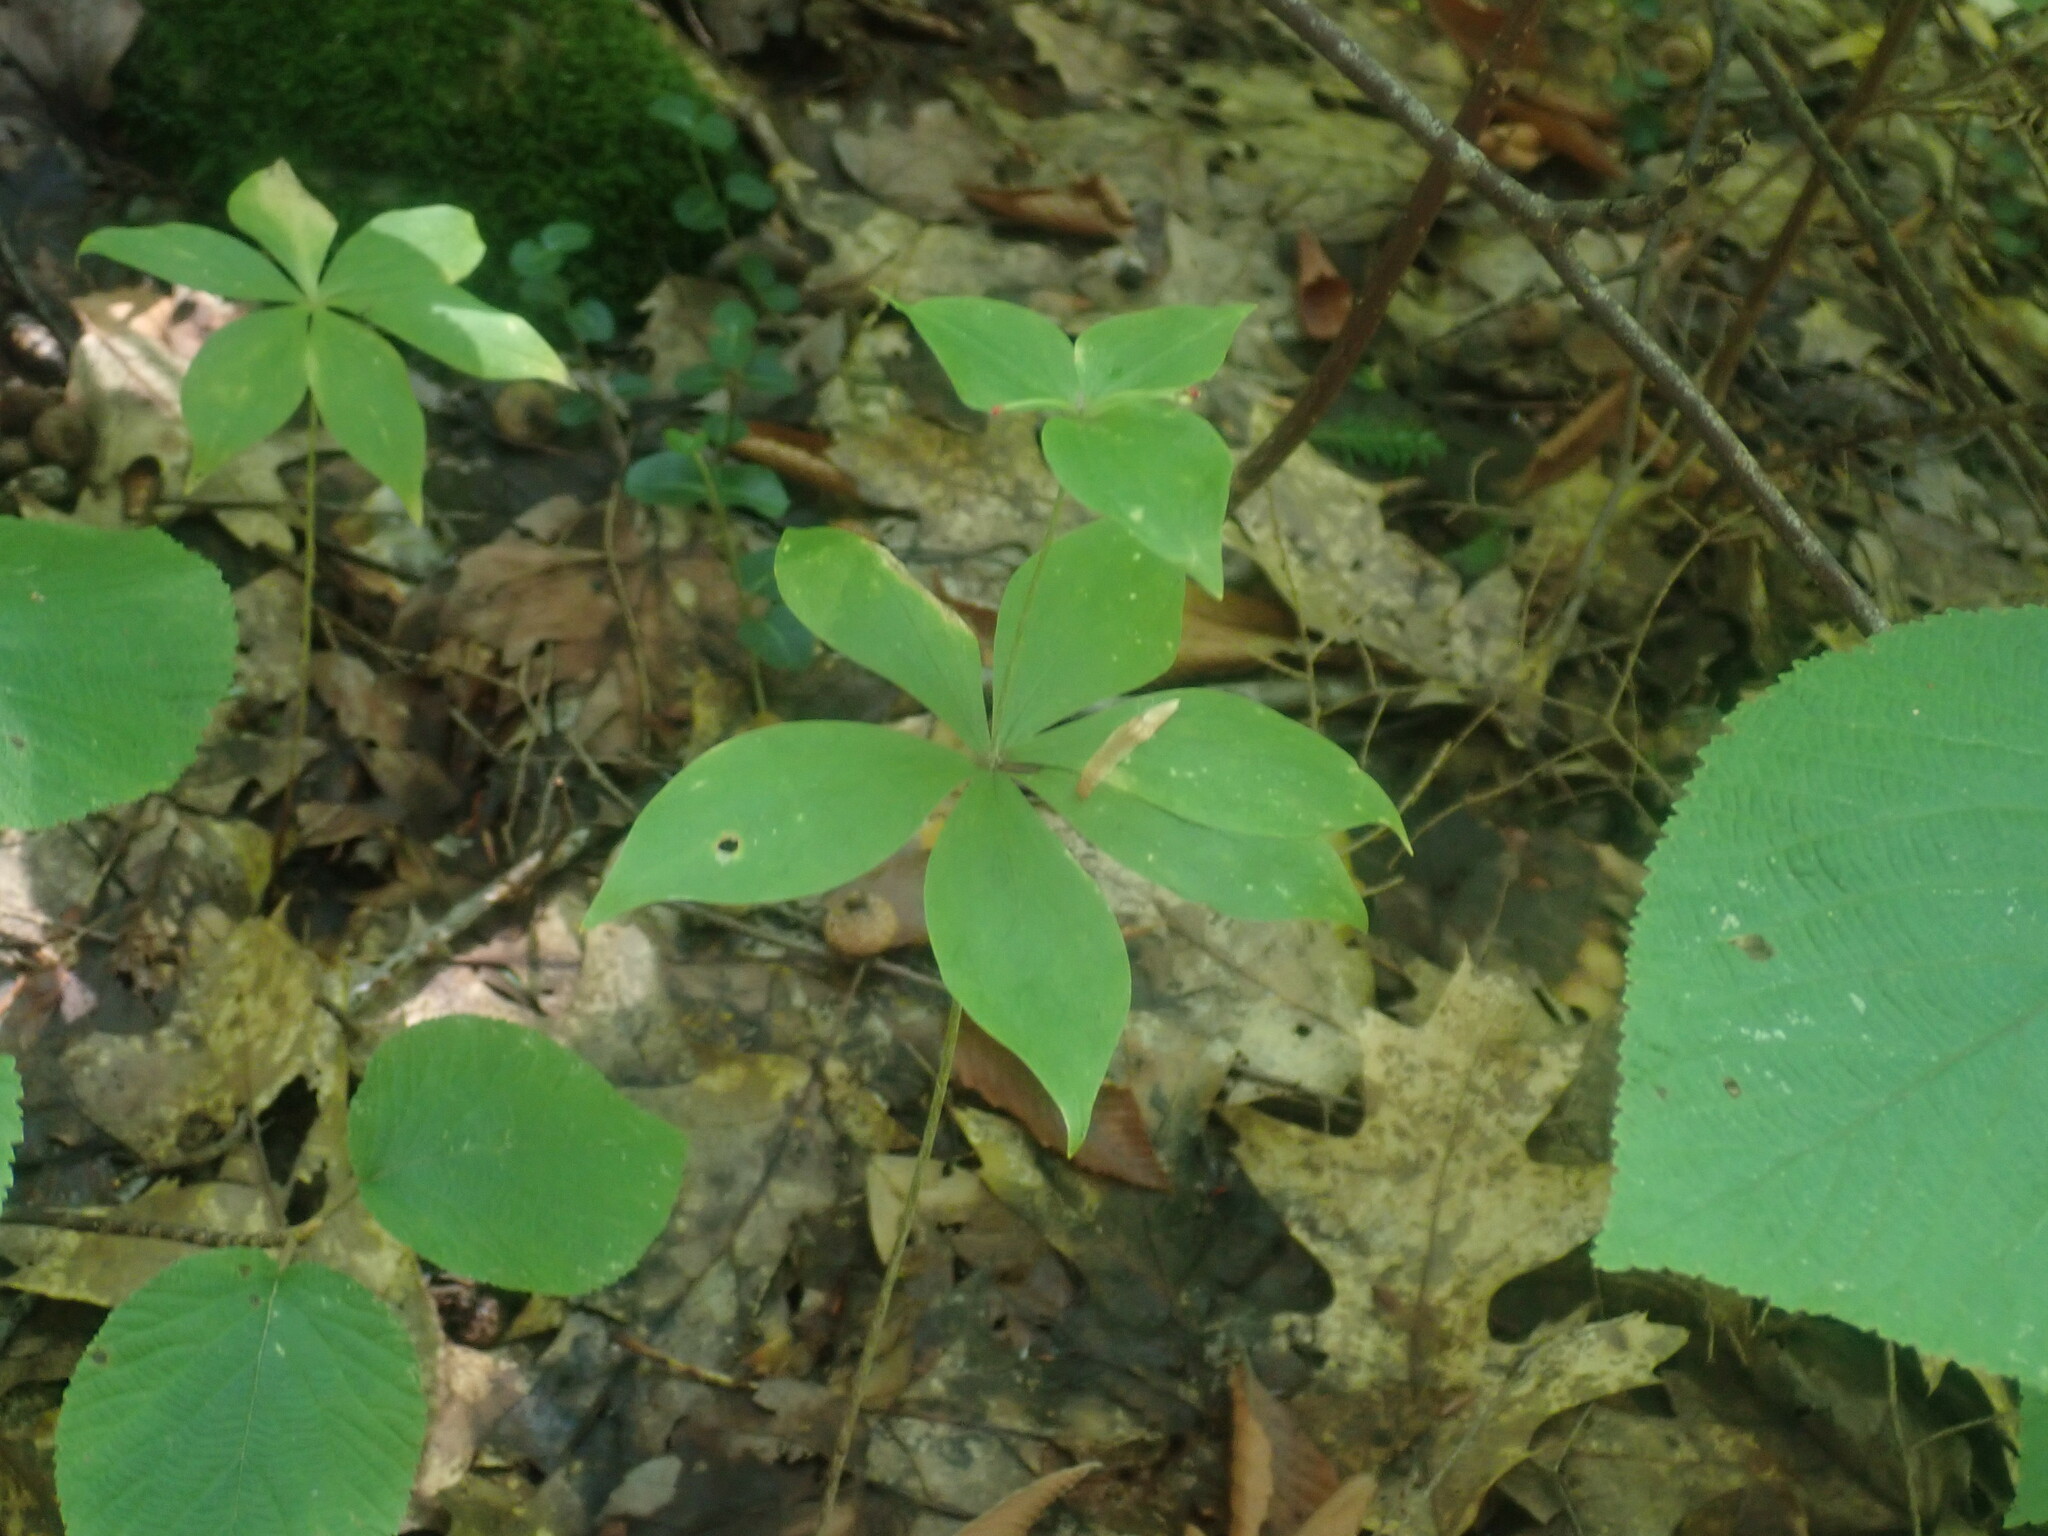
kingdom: Plantae
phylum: Tracheophyta
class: Liliopsida
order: Liliales
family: Liliaceae
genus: Medeola
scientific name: Medeola virginiana
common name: Indian cucumber-root
